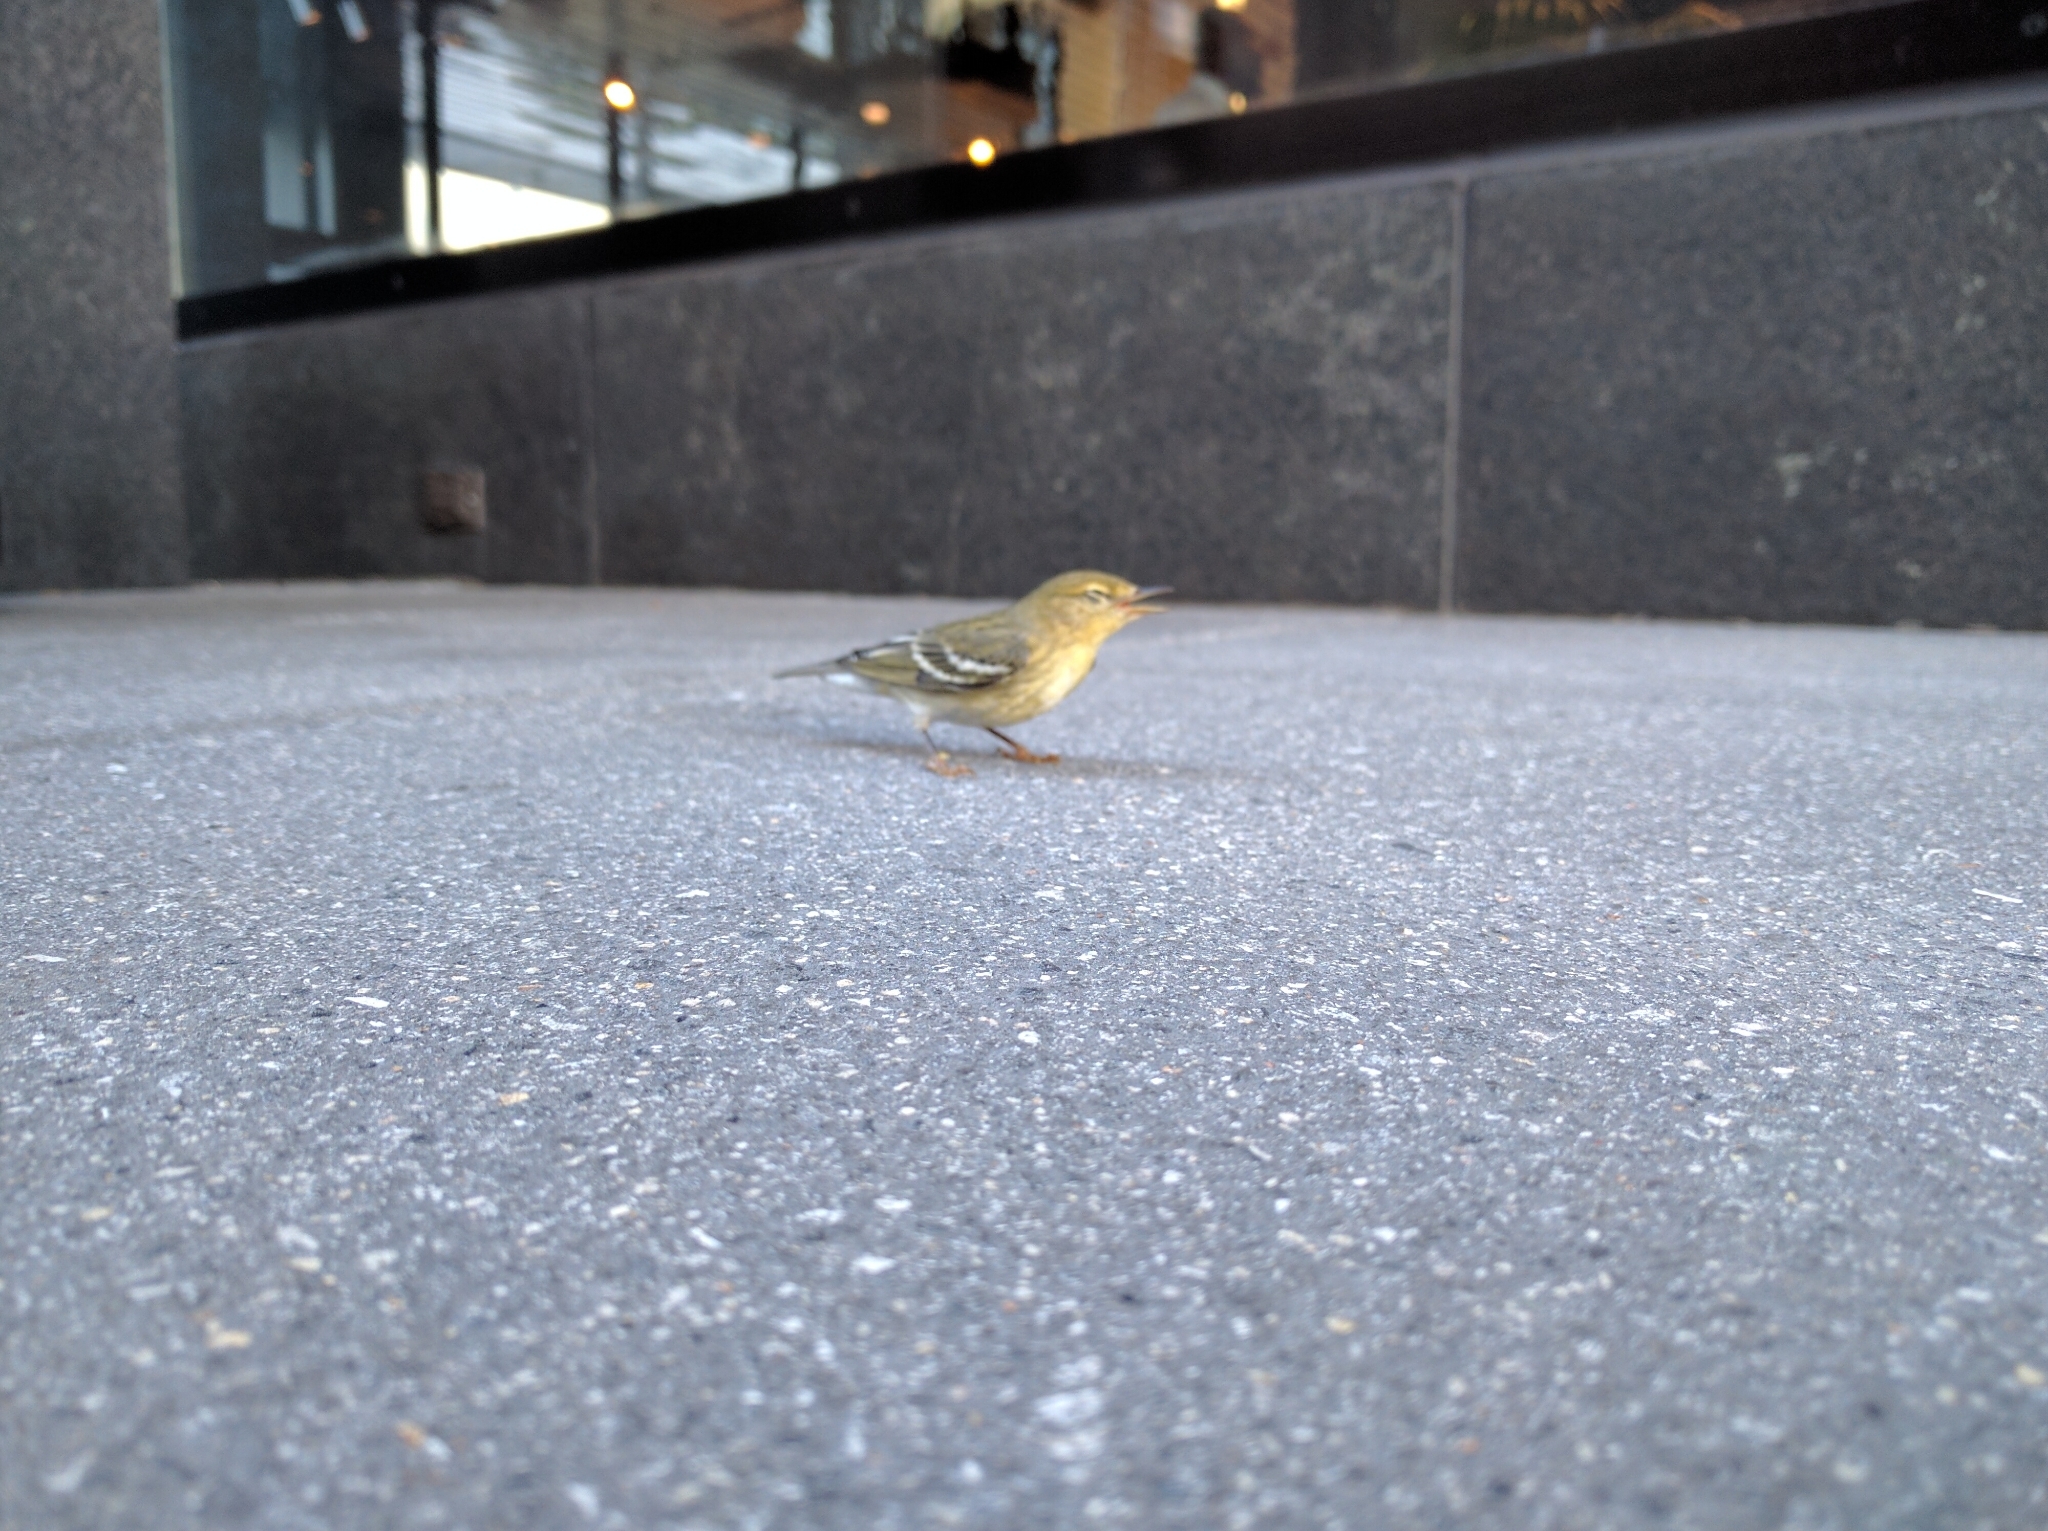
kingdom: Animalia
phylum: Chordata
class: Aves
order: Passeriformes
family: Parulidae
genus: Setophaga
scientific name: Setophaga striata
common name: Blackpoll warbler
